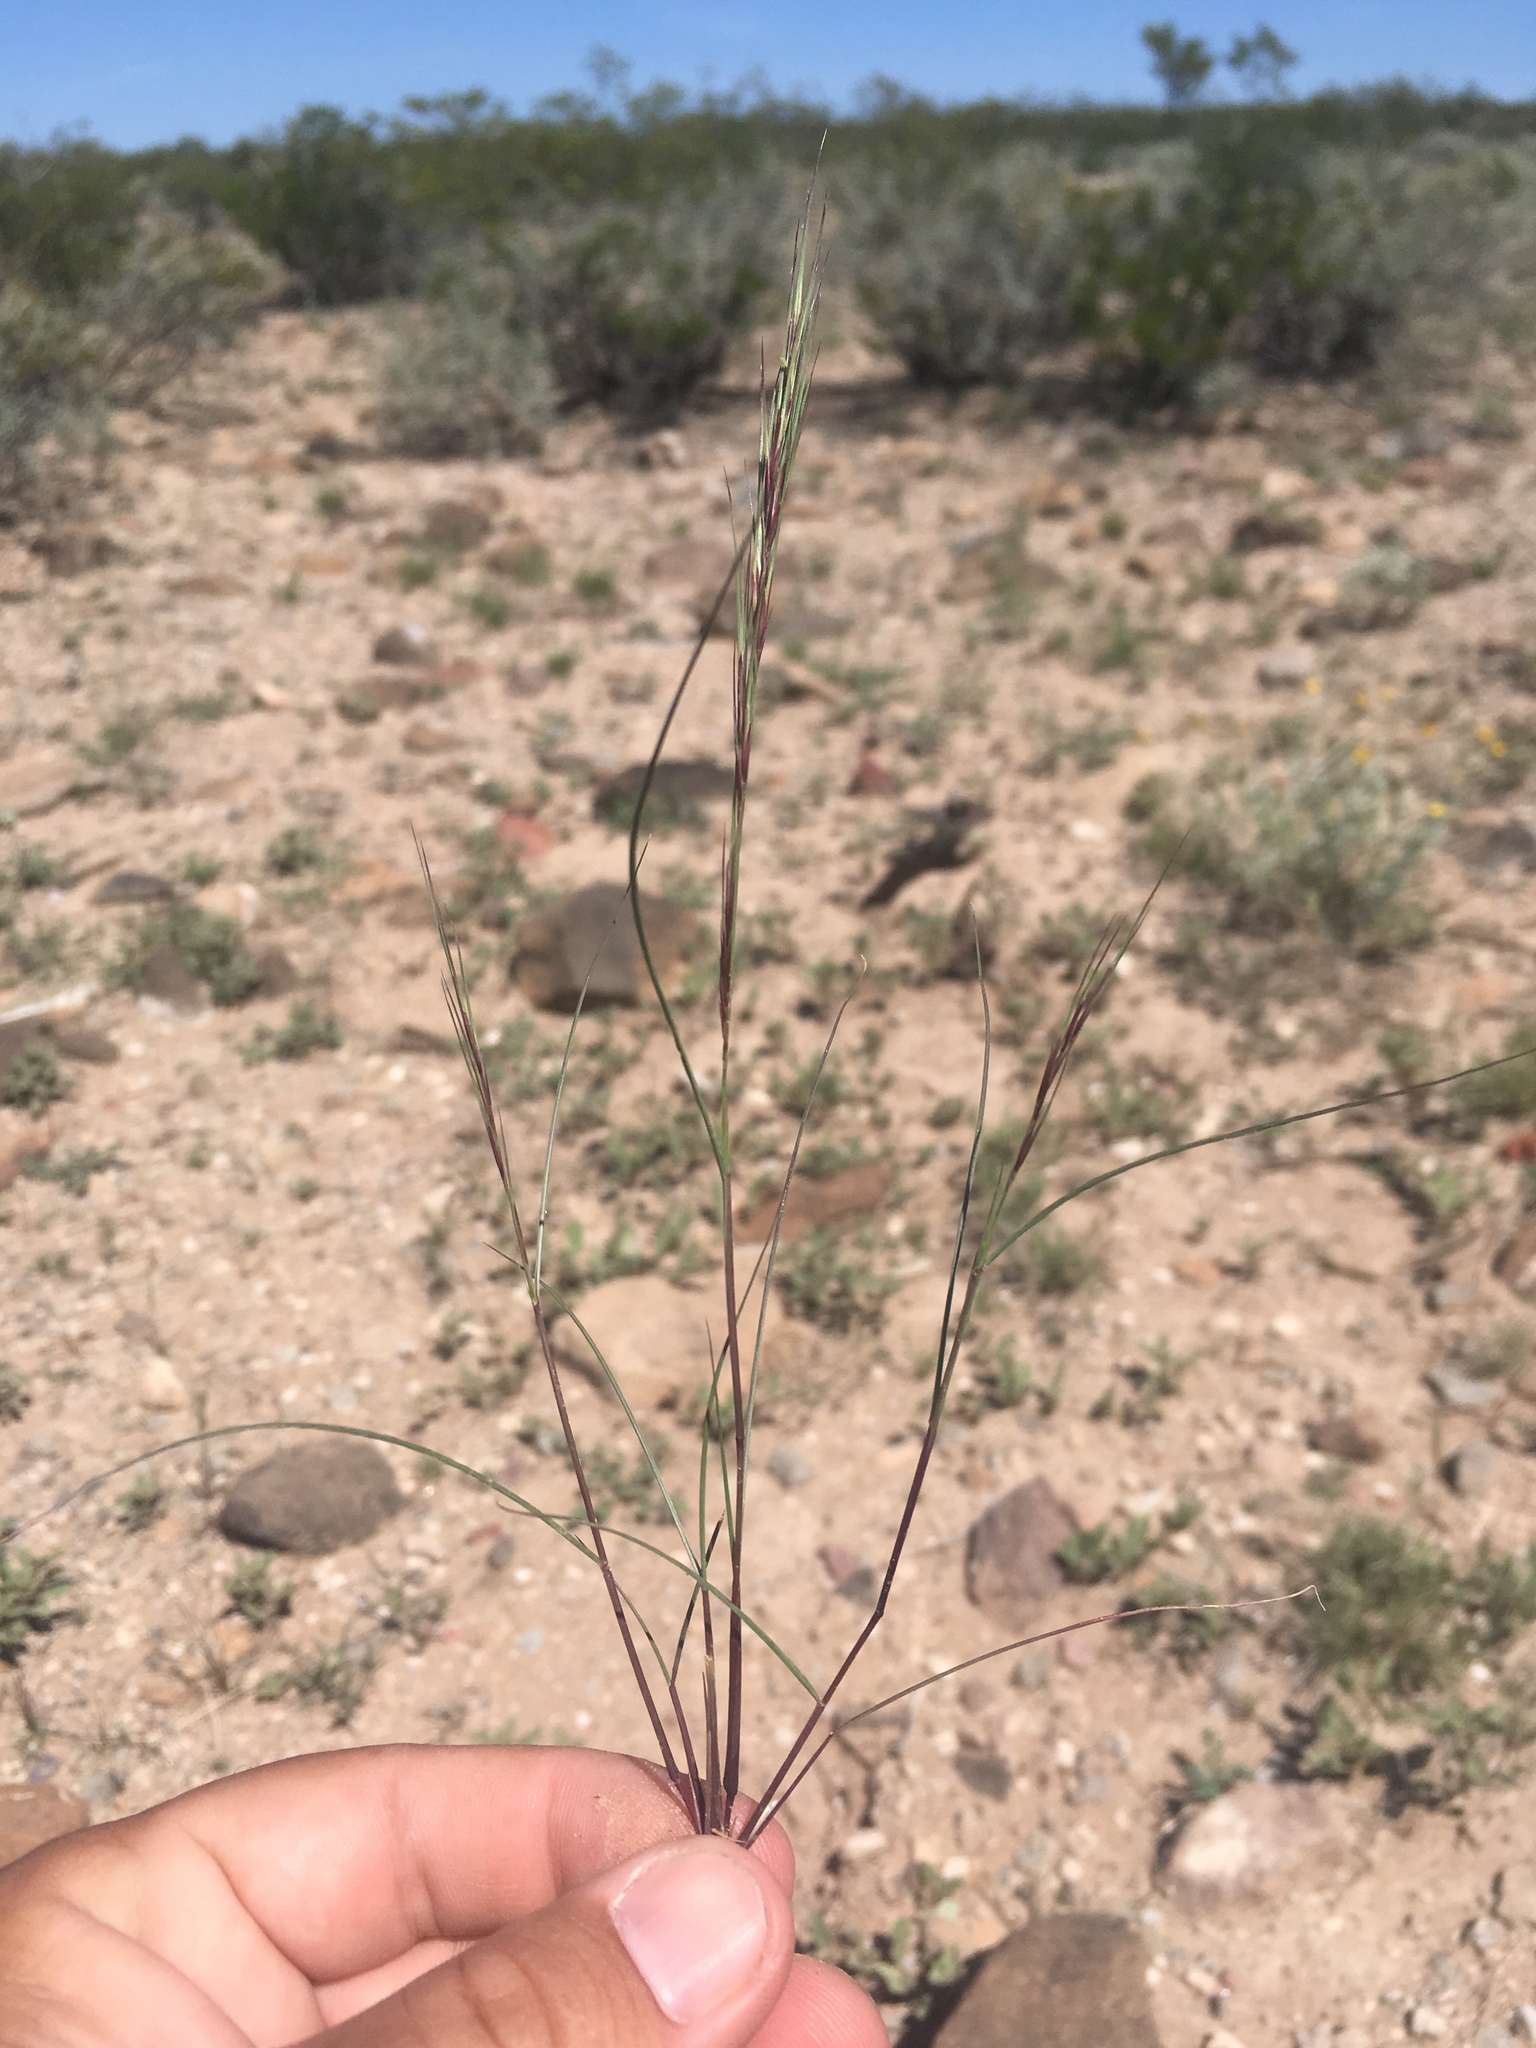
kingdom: Plantae
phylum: Tracheophyta
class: Liliopsida
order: Poales
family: Poaceae
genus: Aristida
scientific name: Aristida adscensionis
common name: Sixweeks threeawn
